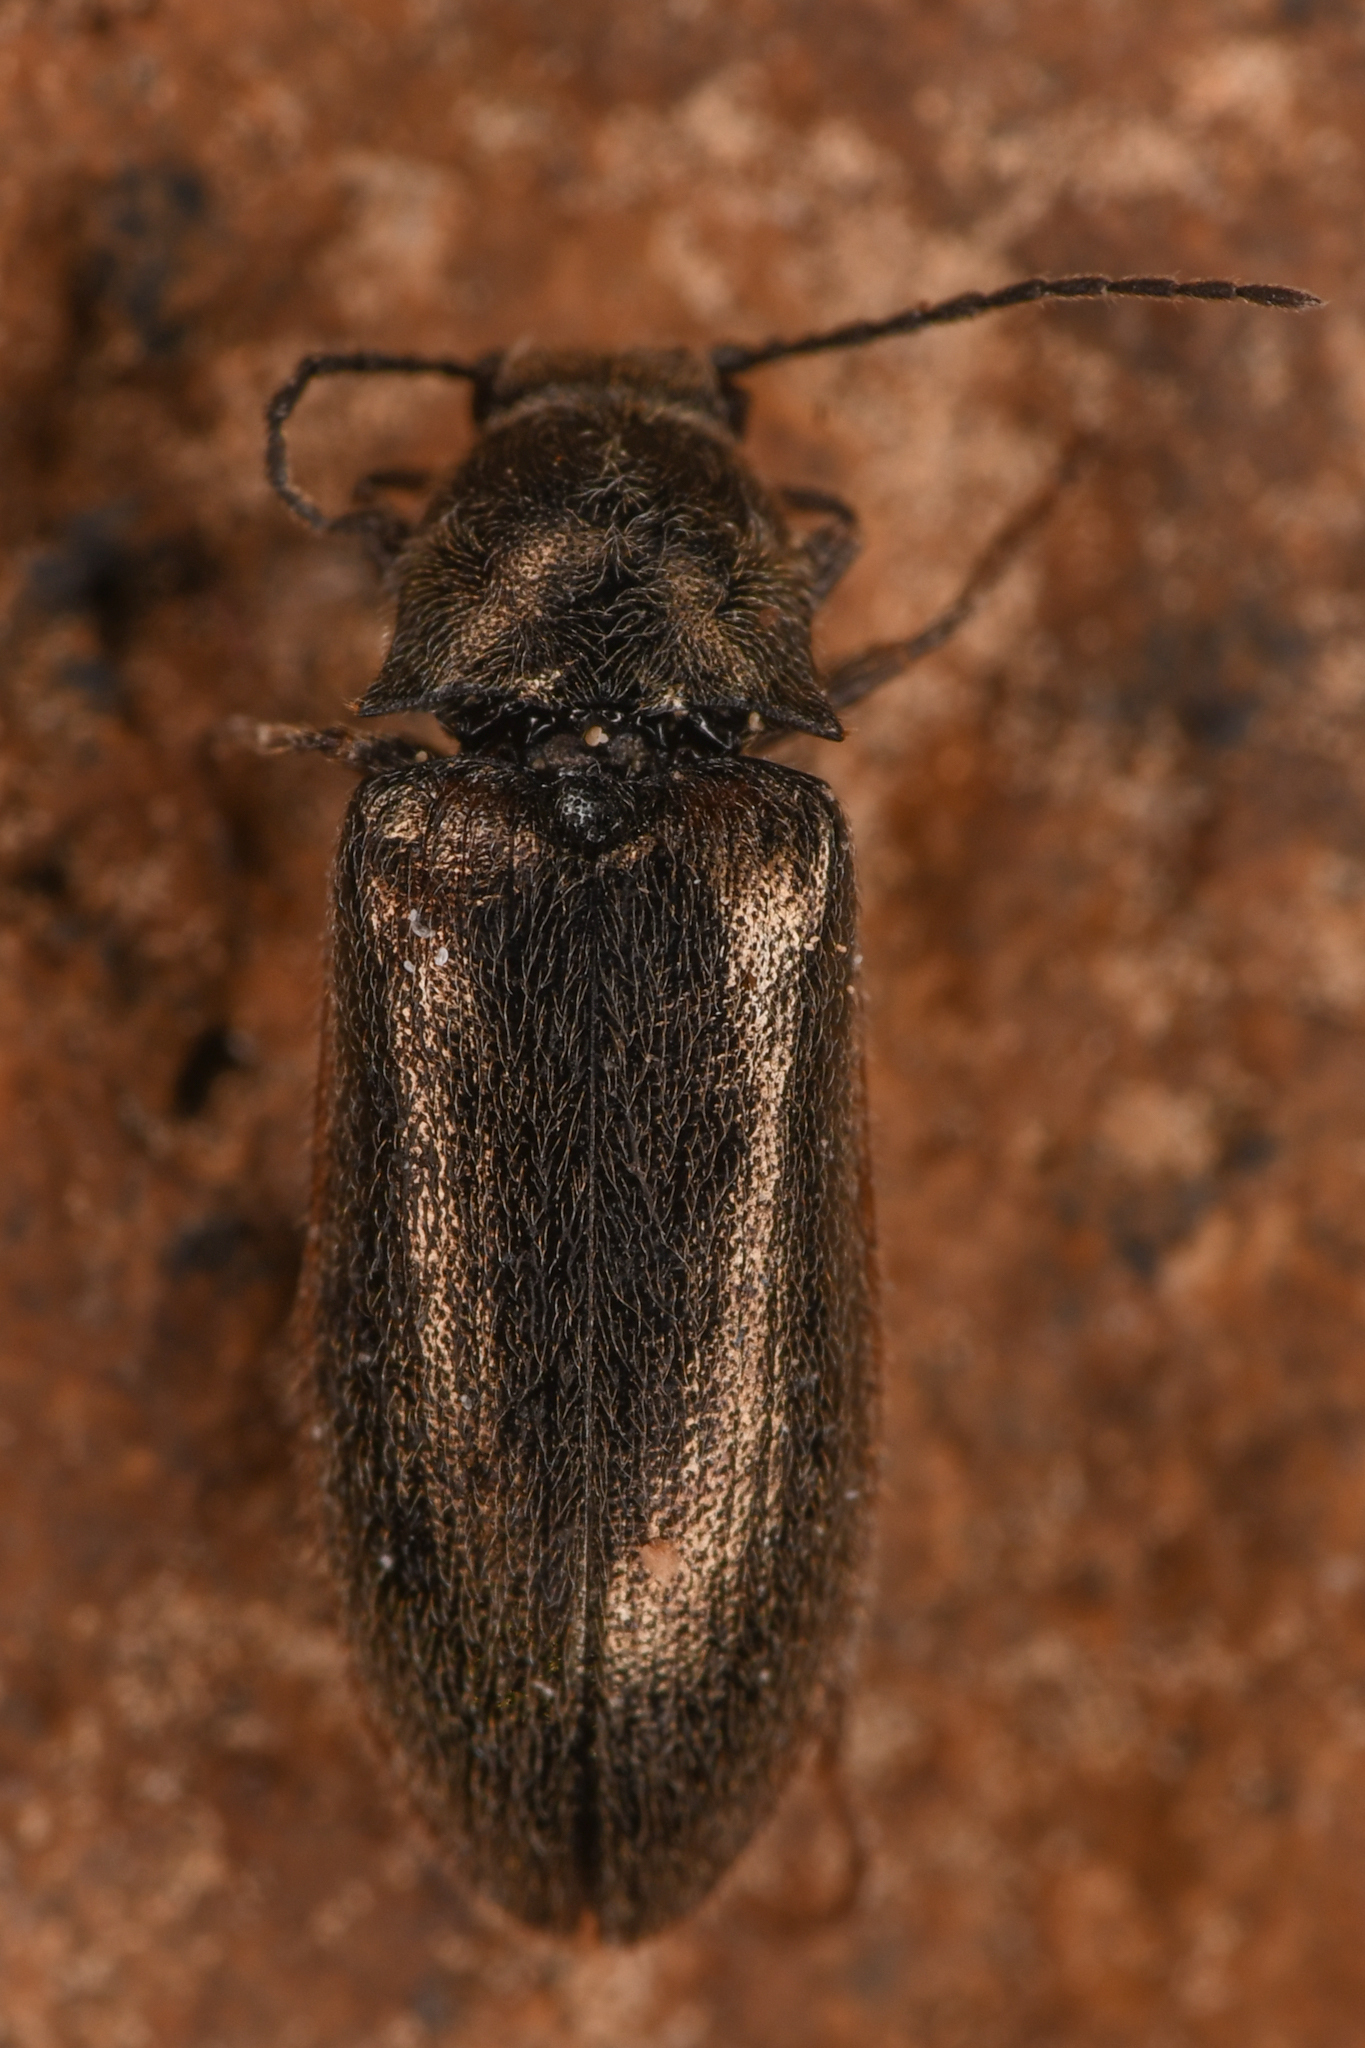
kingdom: Animalia
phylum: Arthropoda
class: Insecta
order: Coleoptera
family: Elateridae
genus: Eanus
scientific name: Eanus decoratus
